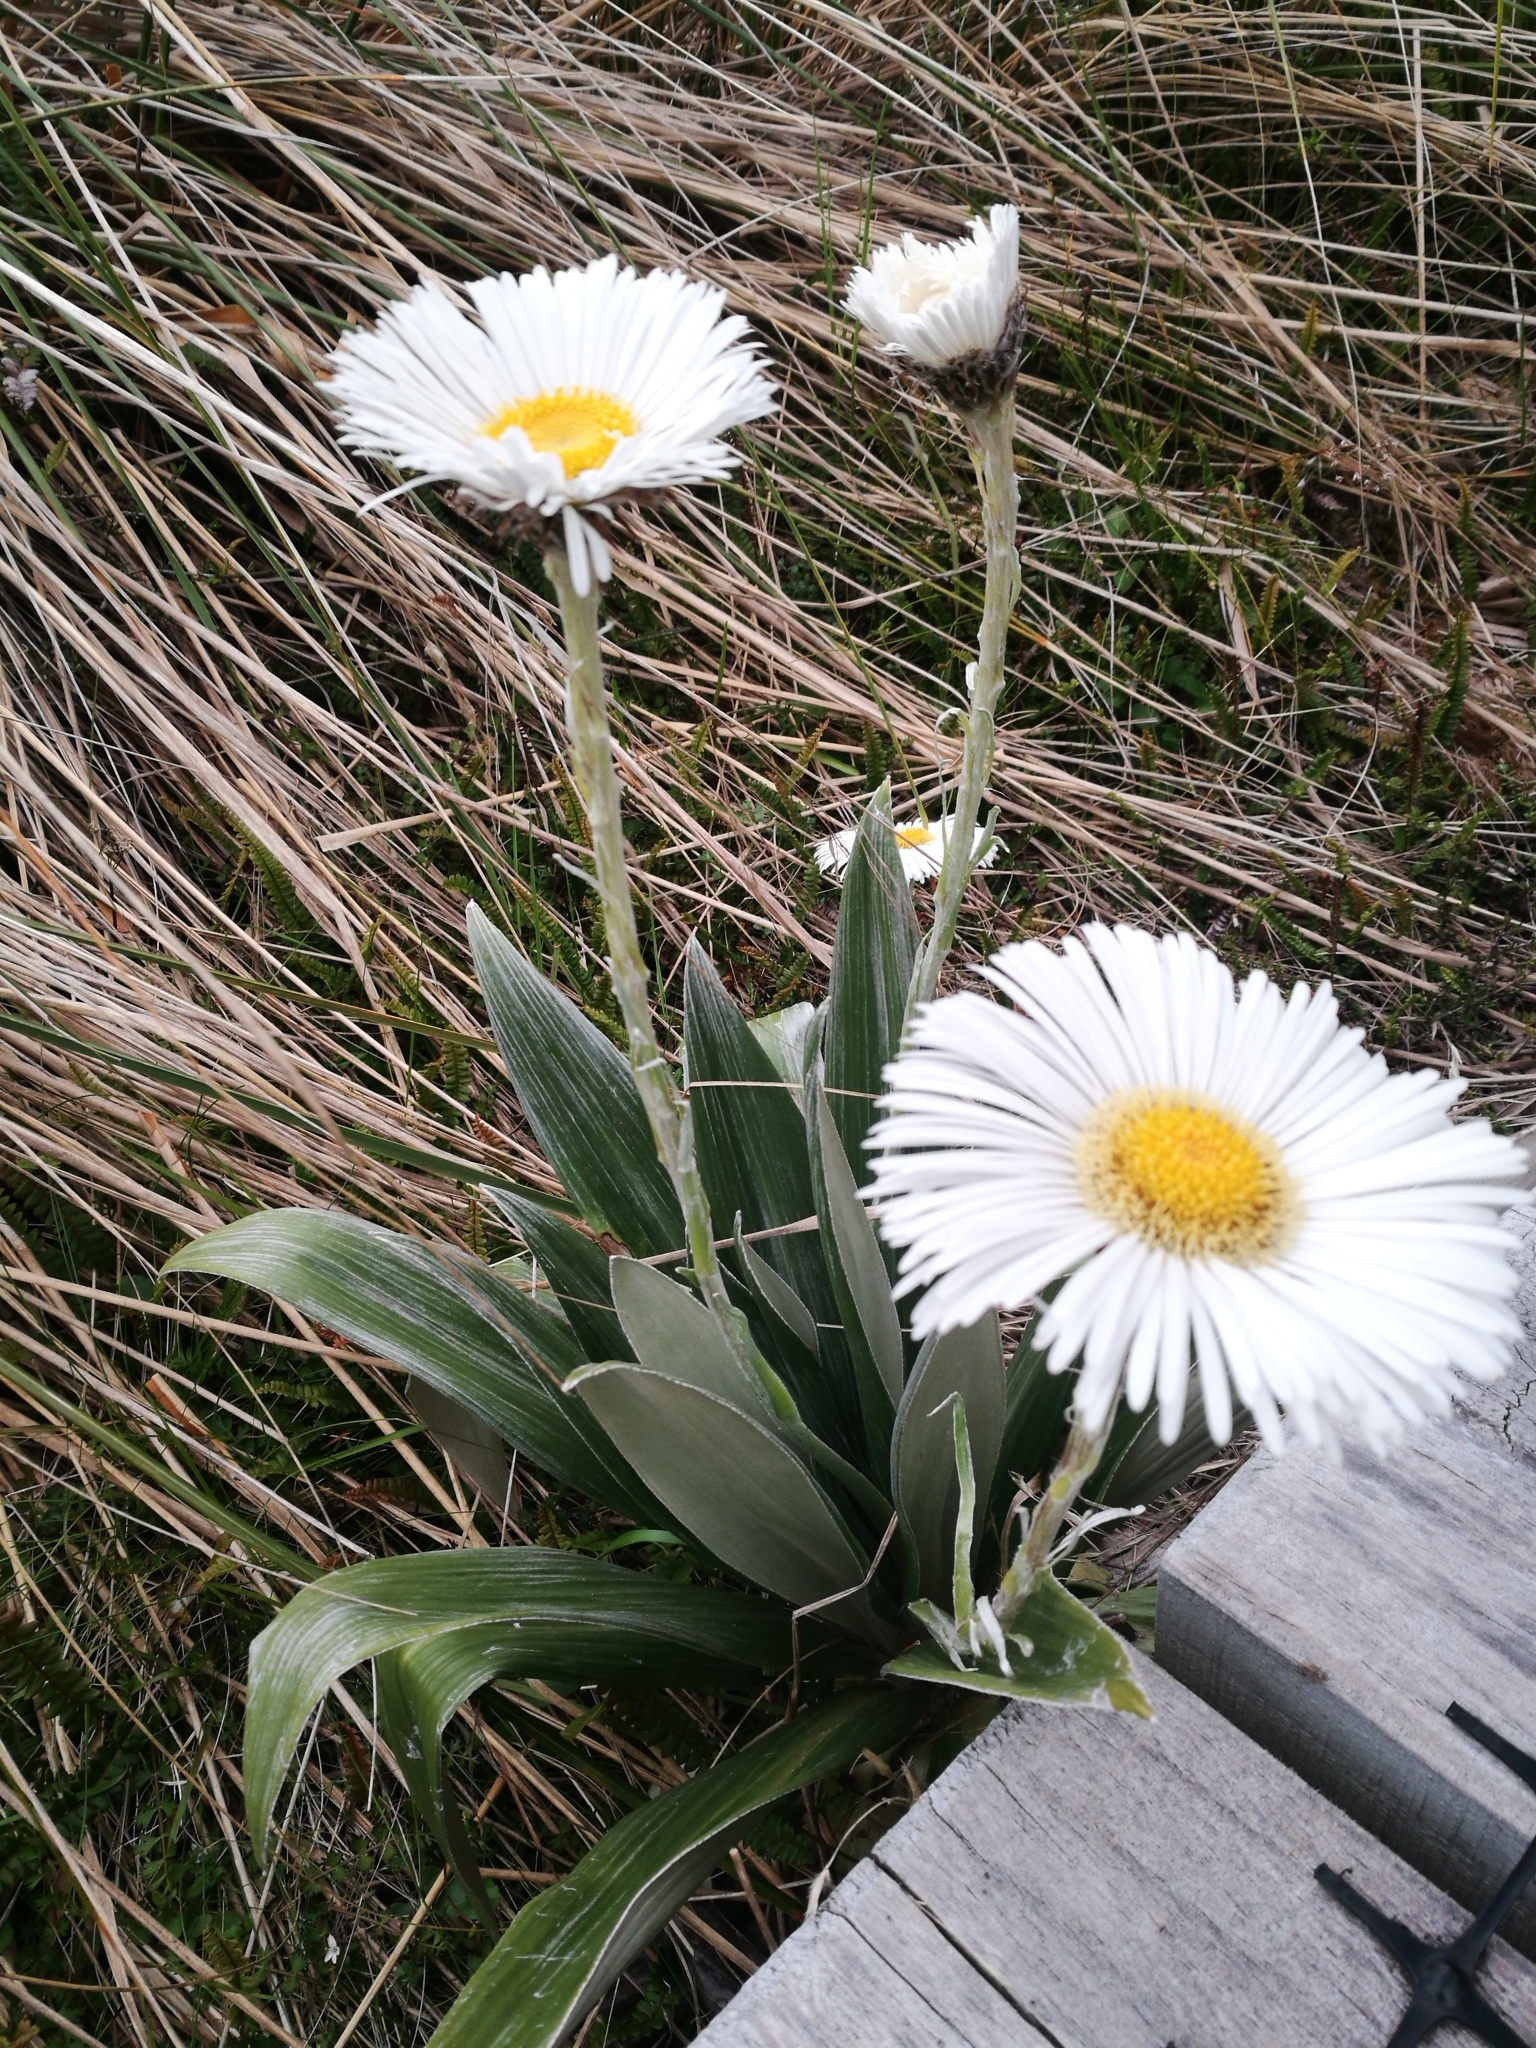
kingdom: Plantae
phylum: Tracheophyta
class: Magnoliopsida
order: Asterales
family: Asteraceae
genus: Celmisia
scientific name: Celmisia semicordata
